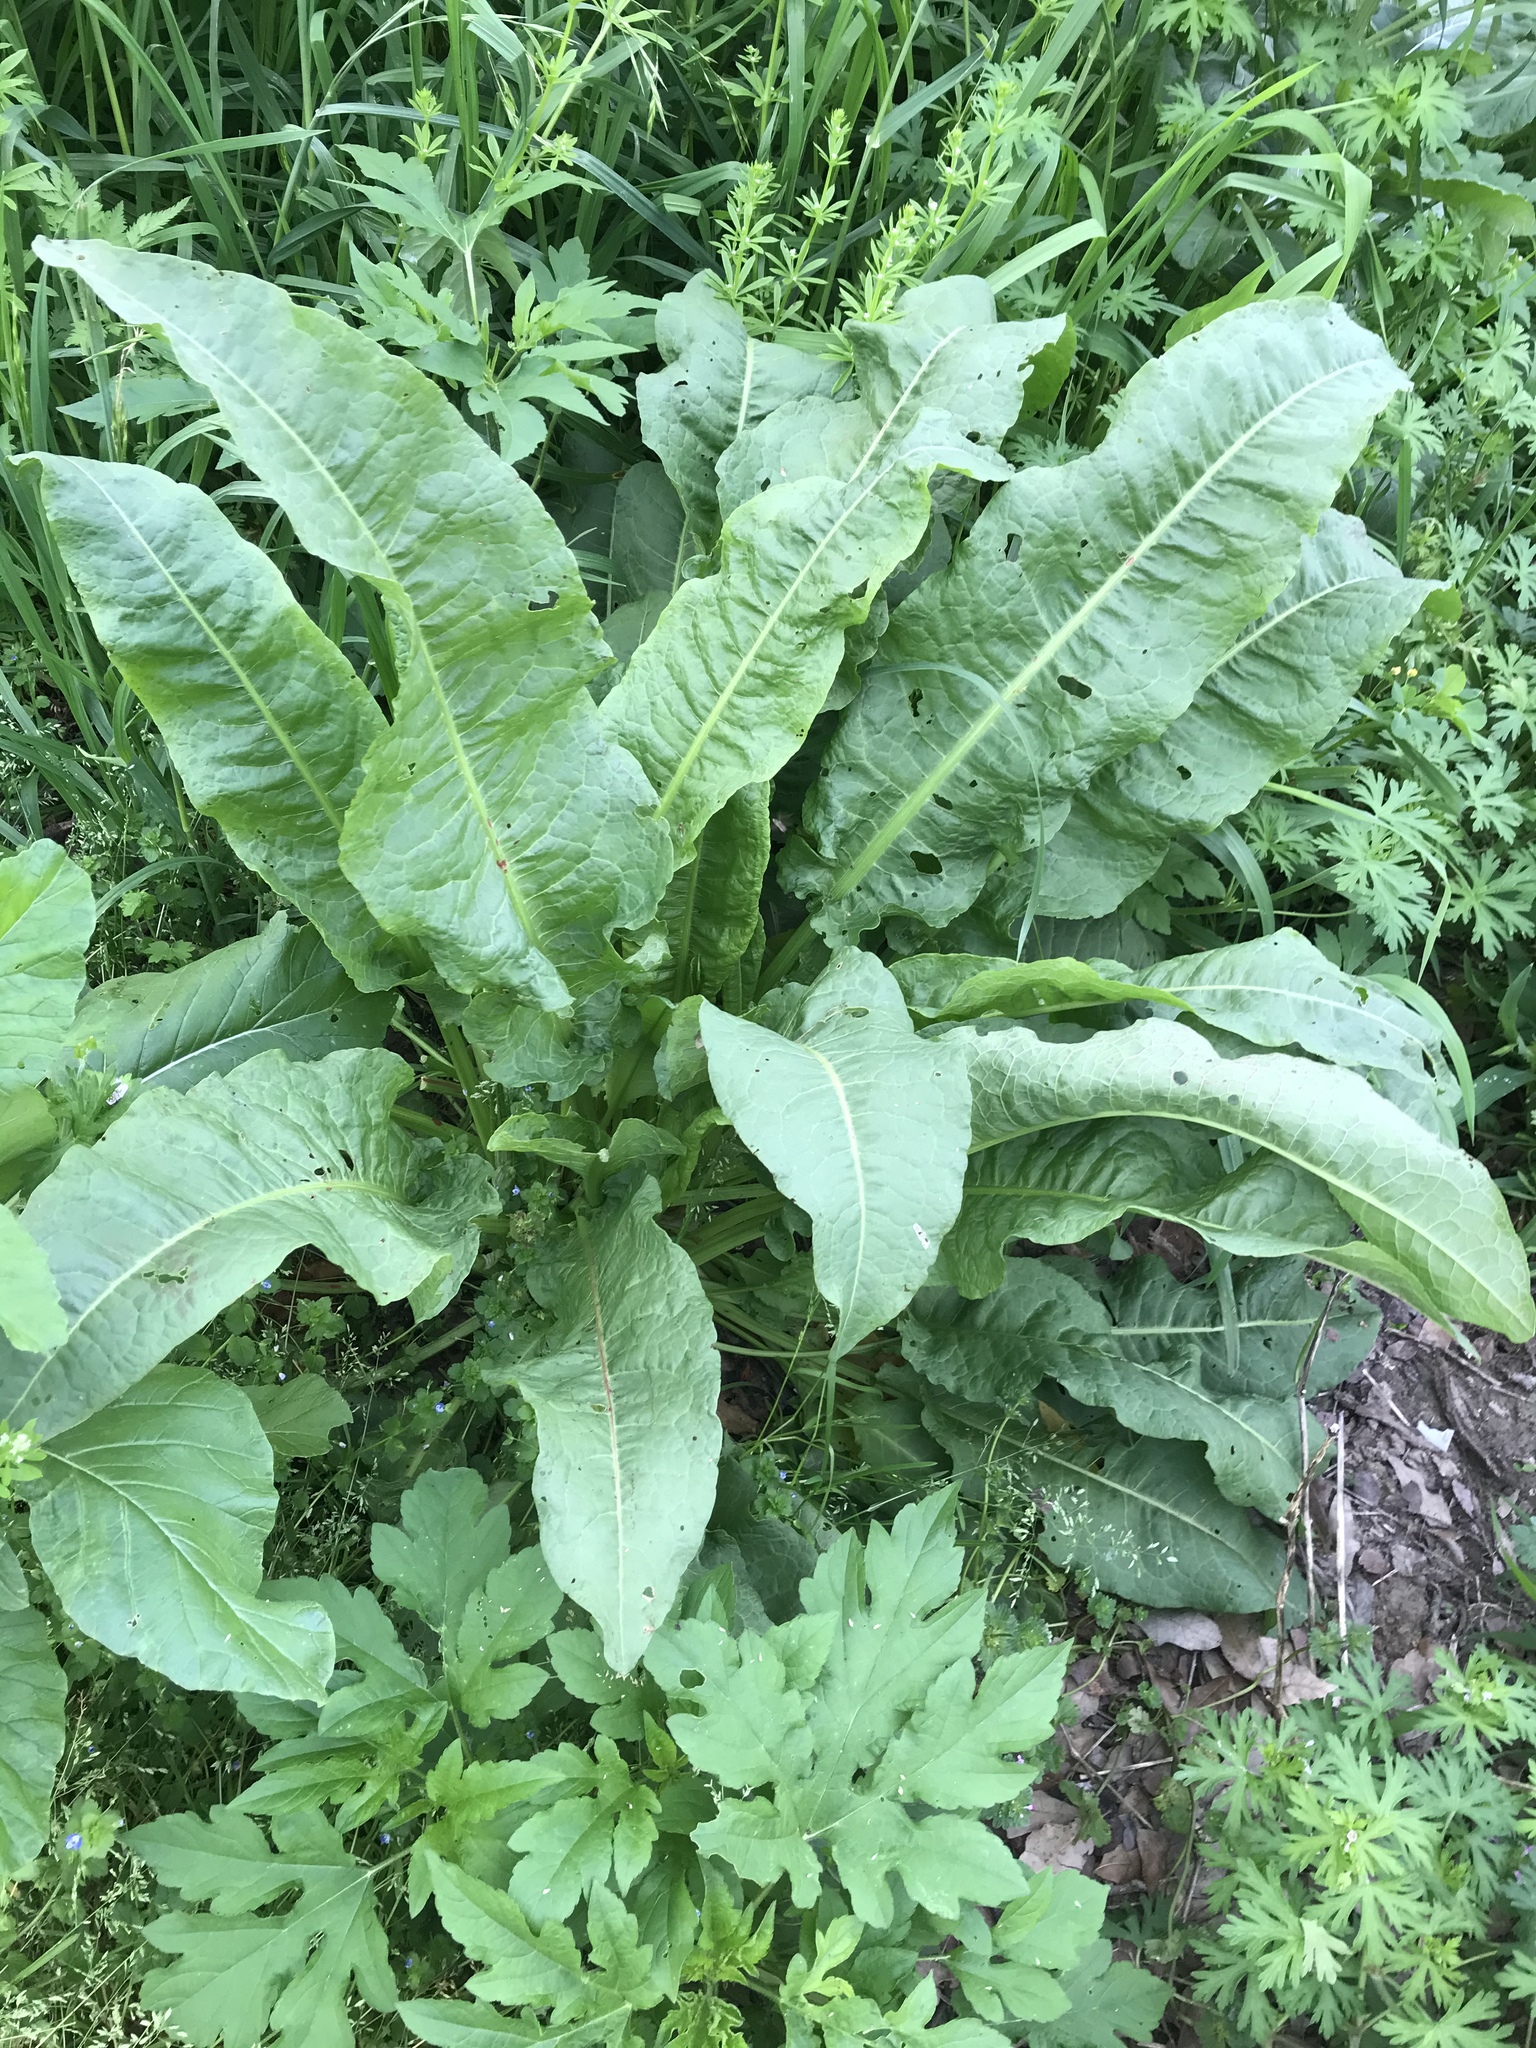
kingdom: Plantae
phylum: Tracheophyta
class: Magnoliopsida
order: Caryophyllales
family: Polygonaceae
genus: Rumex
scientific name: Rumex crispus
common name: Curled dock
